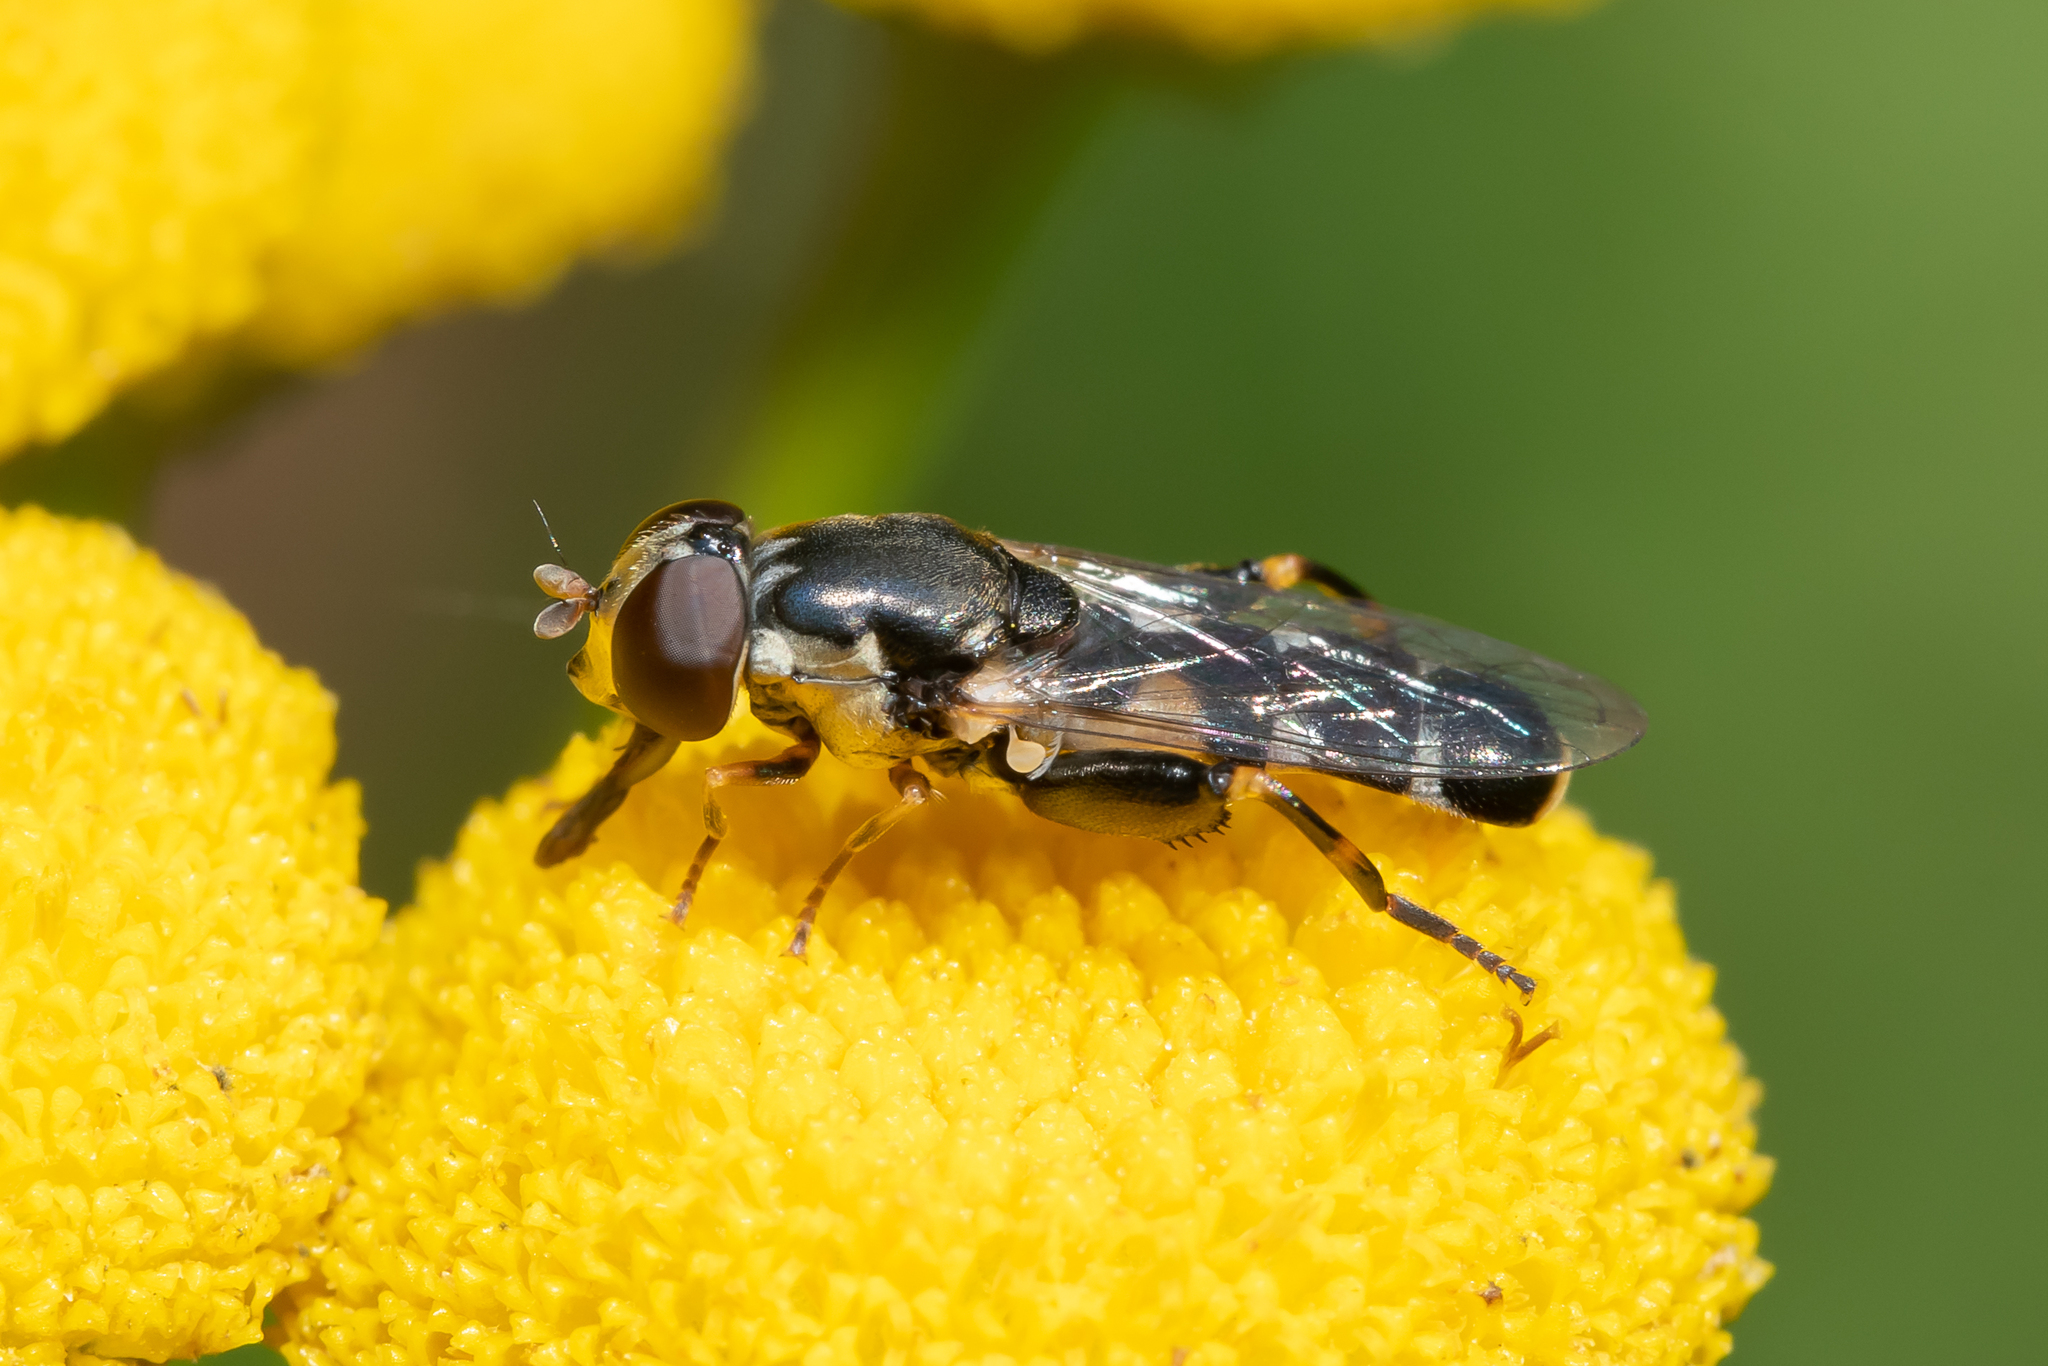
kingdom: Animalia
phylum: Arthropoda
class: Insecta
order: Diptera
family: Syrphidae
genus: Syritta
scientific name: Syritta pipiens
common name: Hover fly
